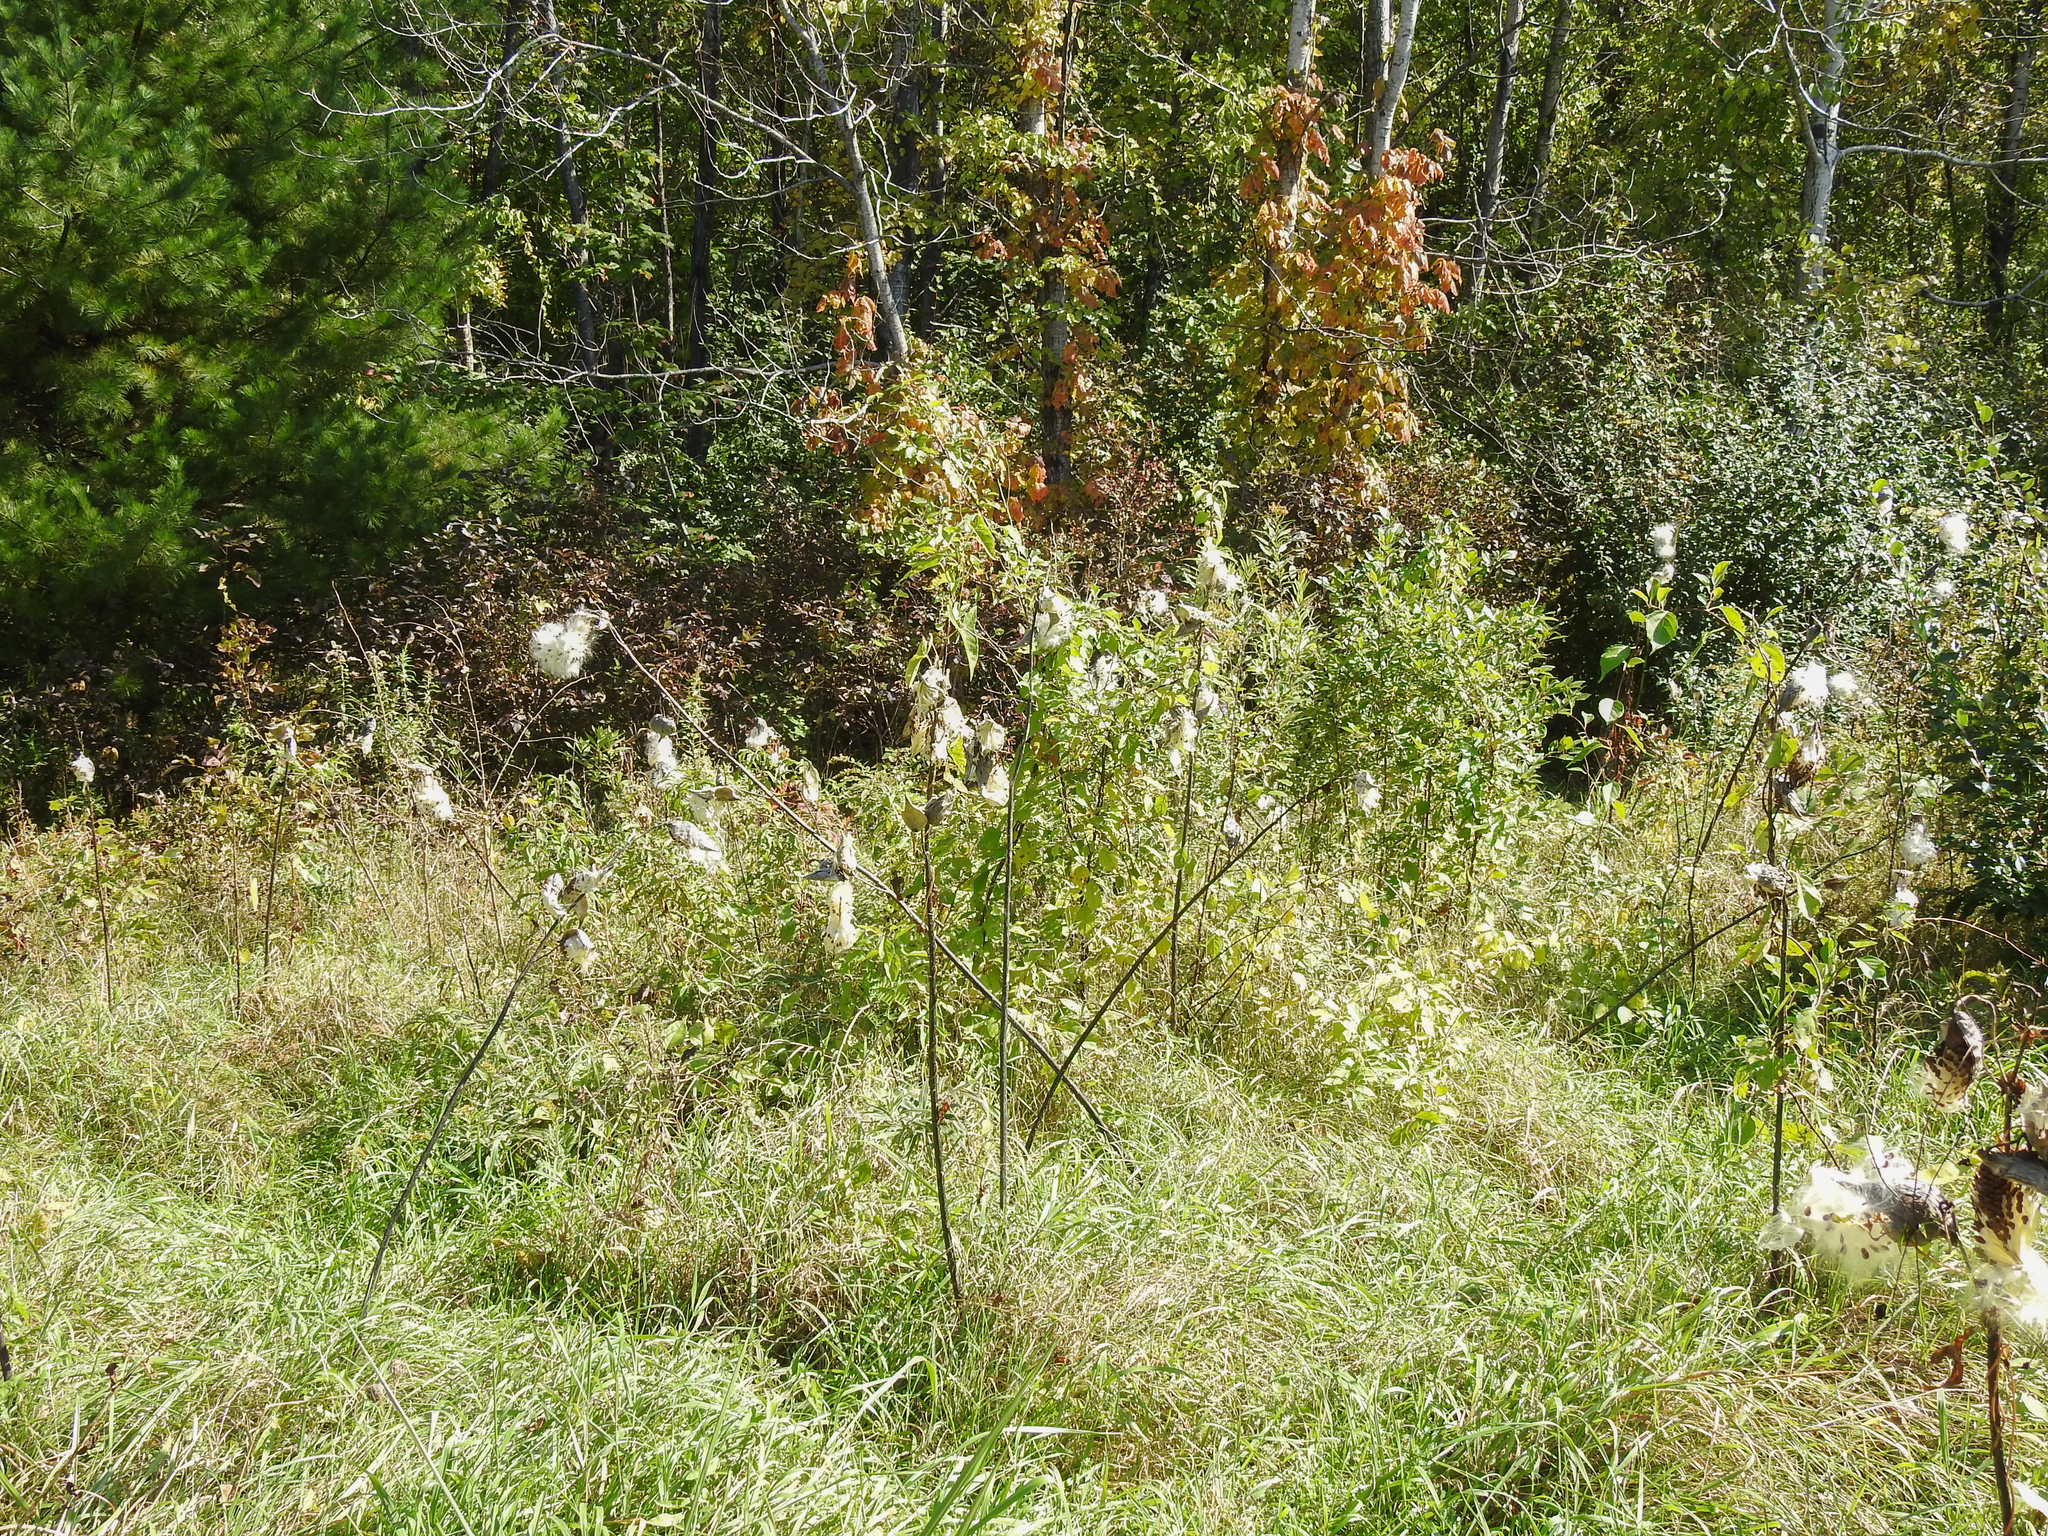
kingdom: Plantae
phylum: Tracheophyta
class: Magnoliopsida
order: Gentianales
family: Apocynaceae
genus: Asclepias
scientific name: Asclepias syriaca
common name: Common milkweed
